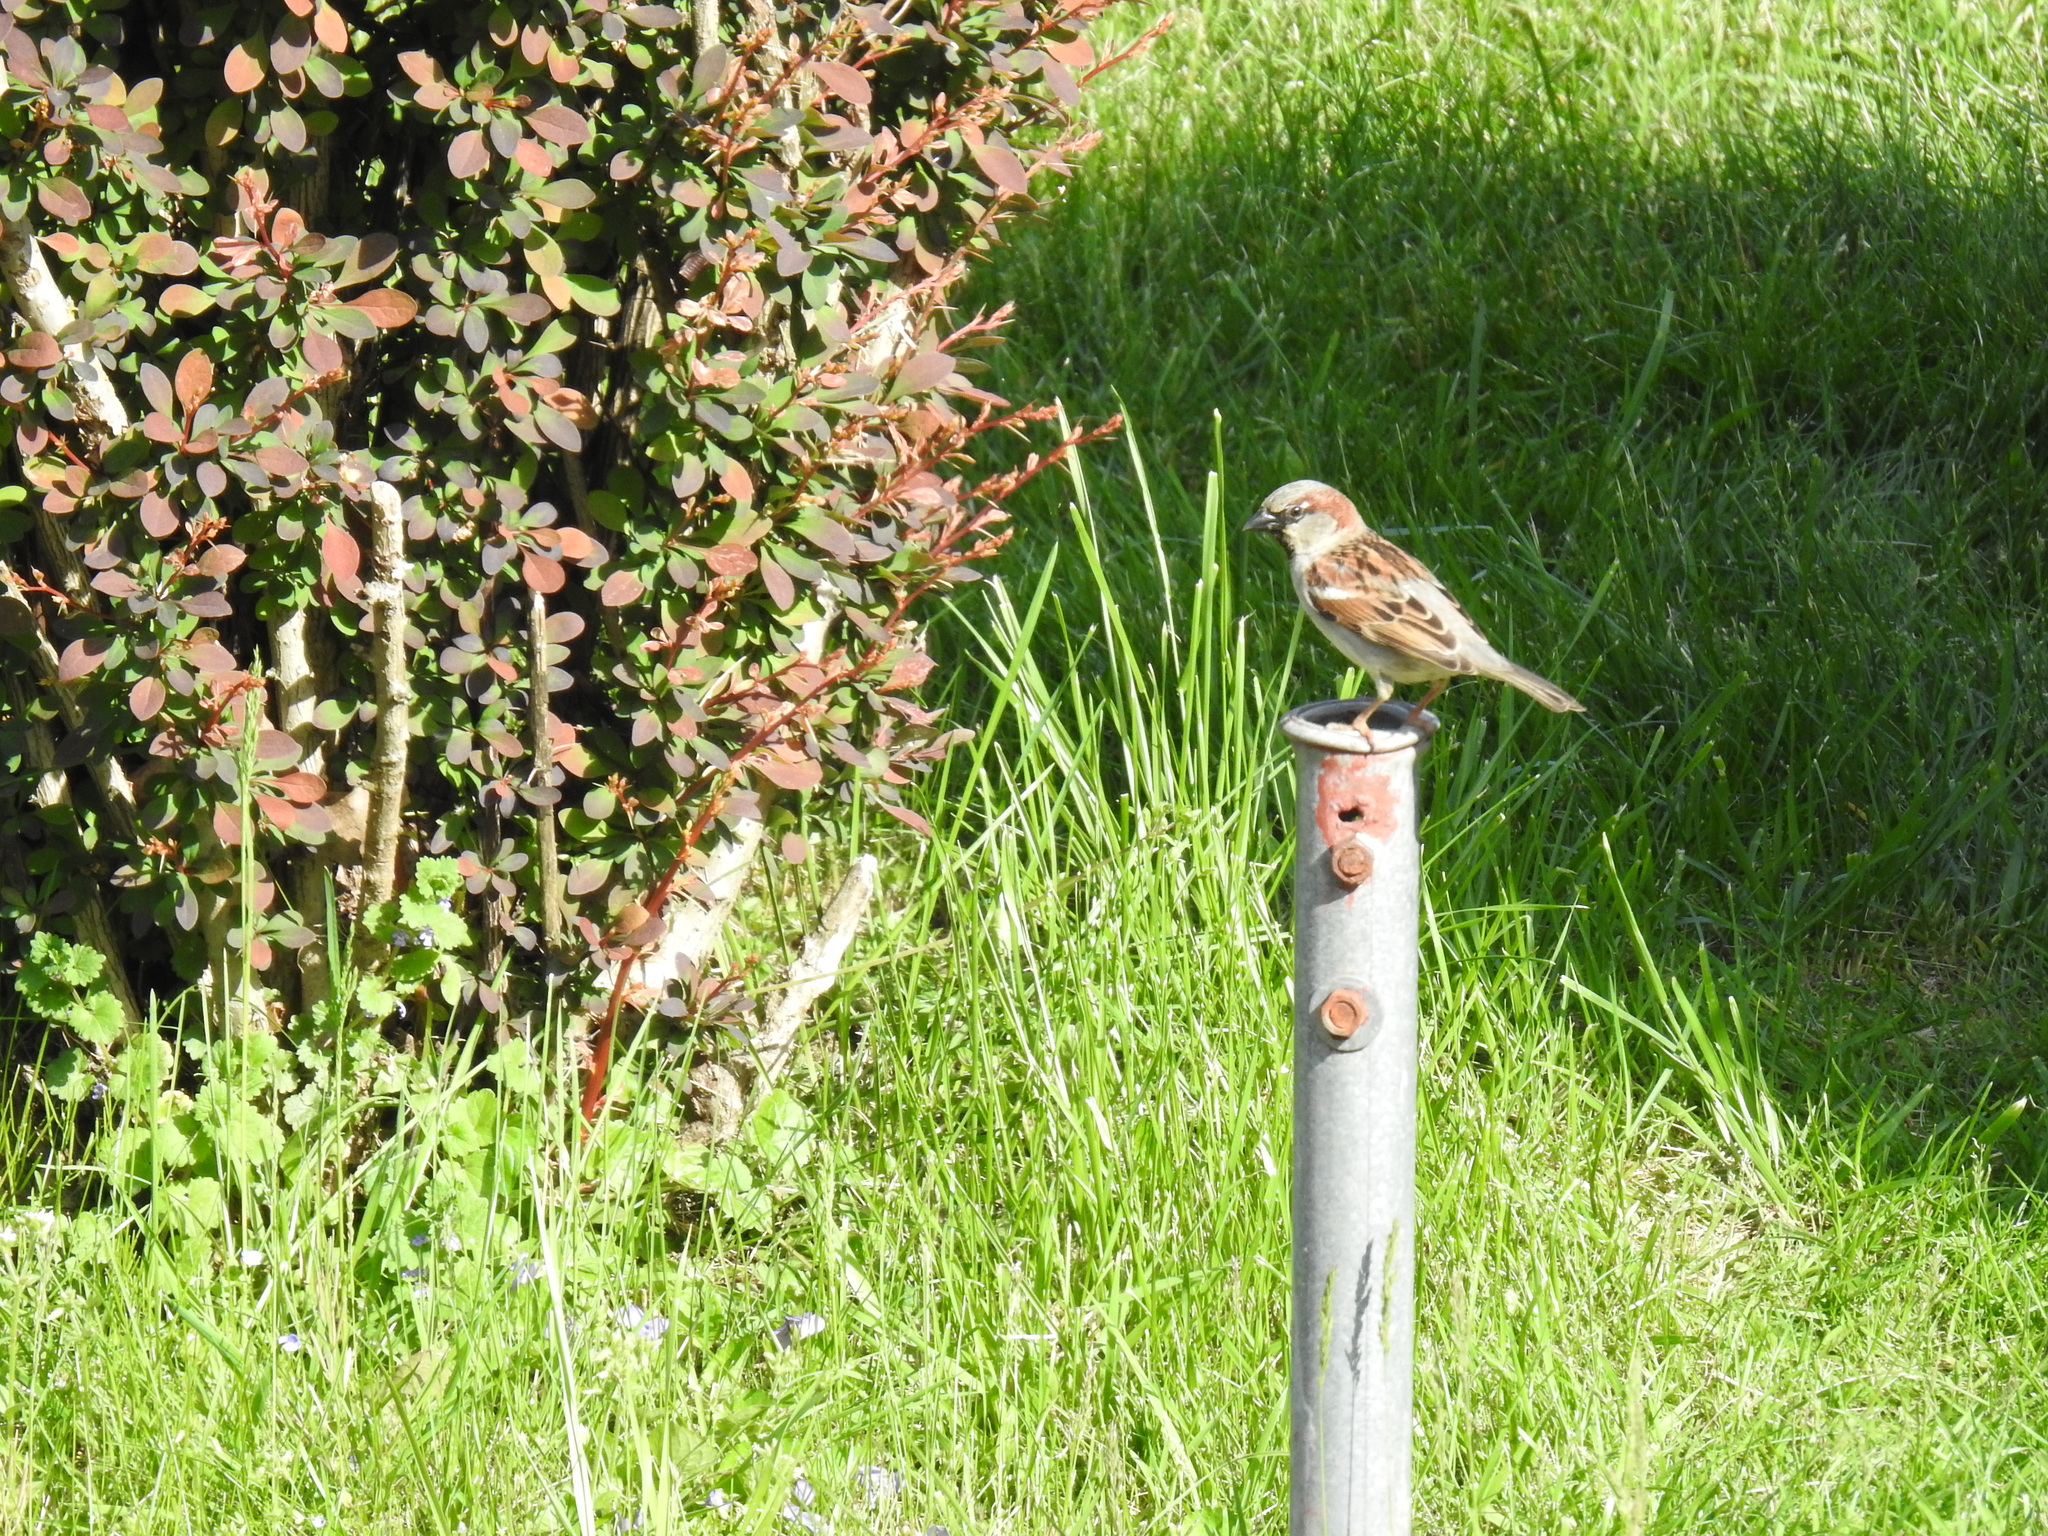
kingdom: Animalia
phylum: Chordata
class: Aves
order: Passeriformes
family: Passeridae
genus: Passer
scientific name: Passer domesticus
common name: House sparrow
